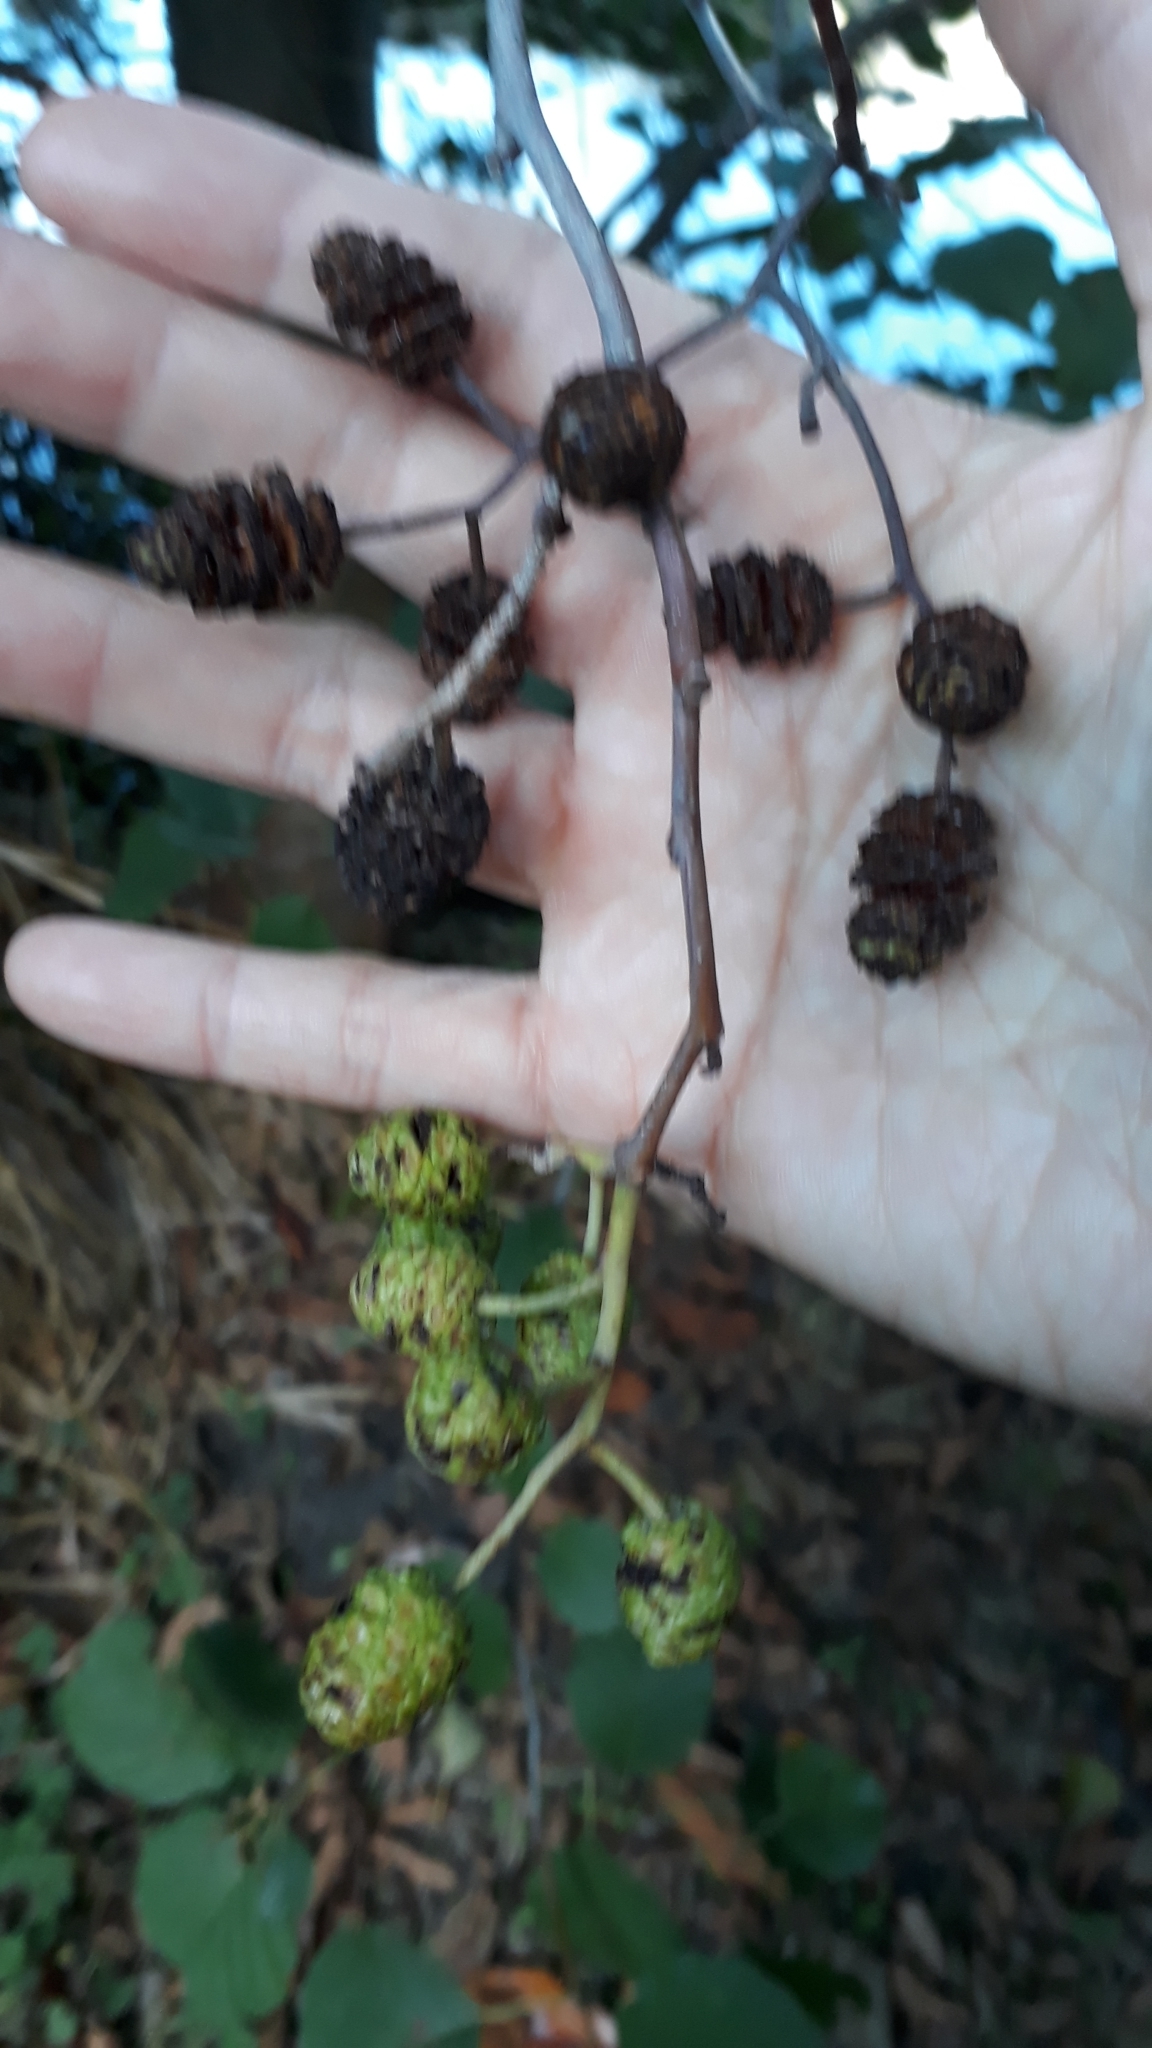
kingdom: Plantae
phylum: Tracheophyta
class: Magnoliopsida
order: Fagales
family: Betulaceae
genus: Alnus
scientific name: Alnus glutinosa
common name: Black alder
